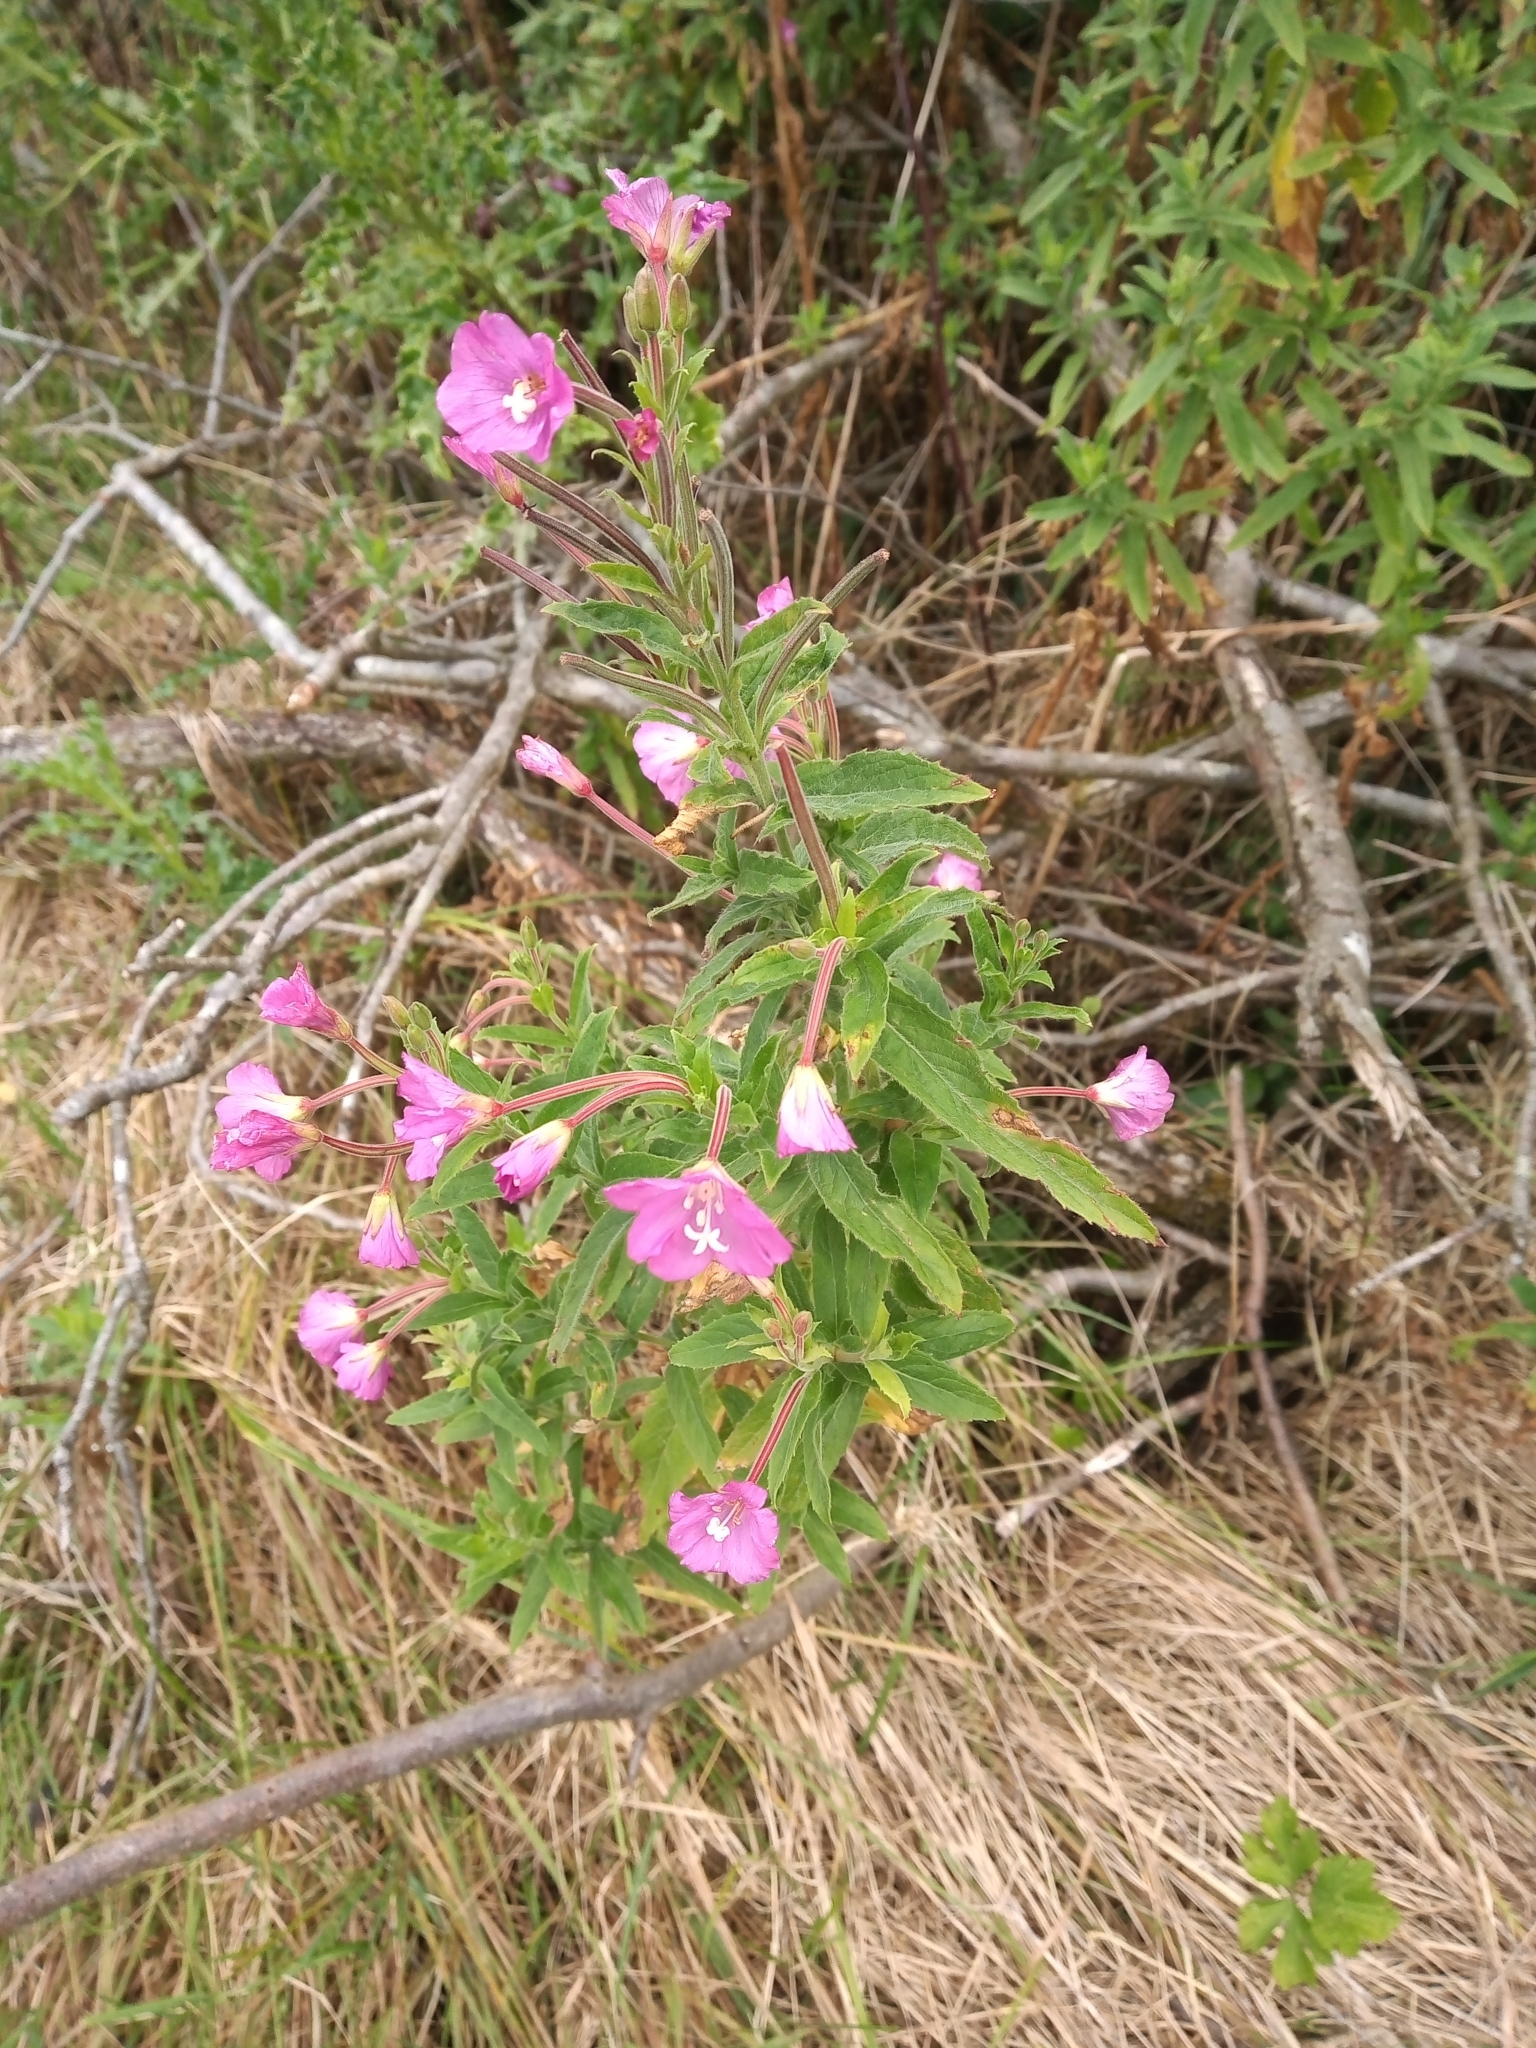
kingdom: Plantae
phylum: Tracheophyta
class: Magnoliopsida
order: Myrtales
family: Onagraceae
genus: Epilobium
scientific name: Epilobium hirsutum
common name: Great willowherb
